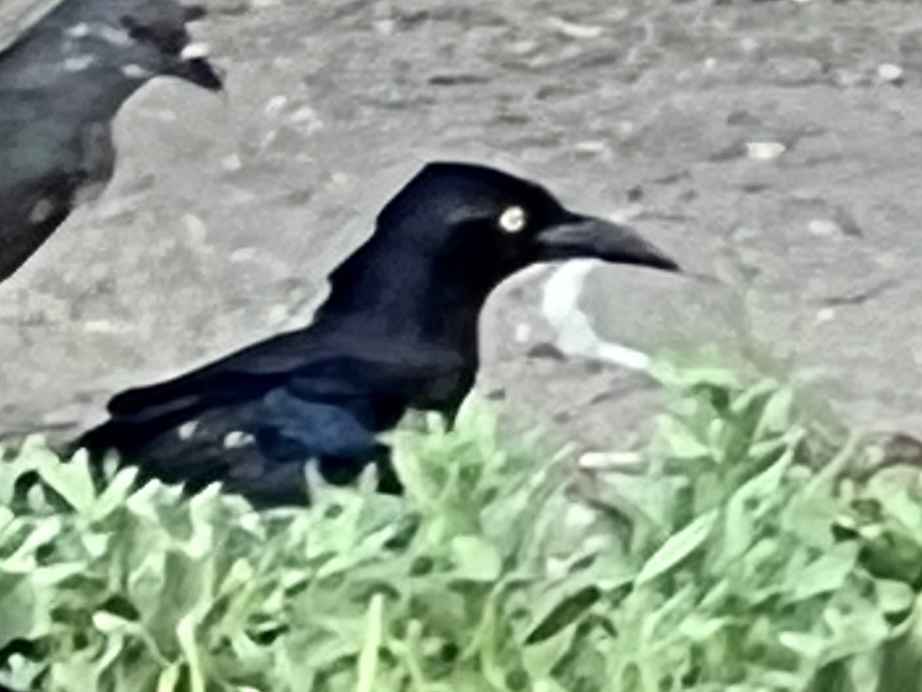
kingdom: Animalia
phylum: Chordata
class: Aves
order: Passeriformes
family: Icteridae
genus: Quiscalus
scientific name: Quiscalus mexicanus
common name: Great-tailed grackle
